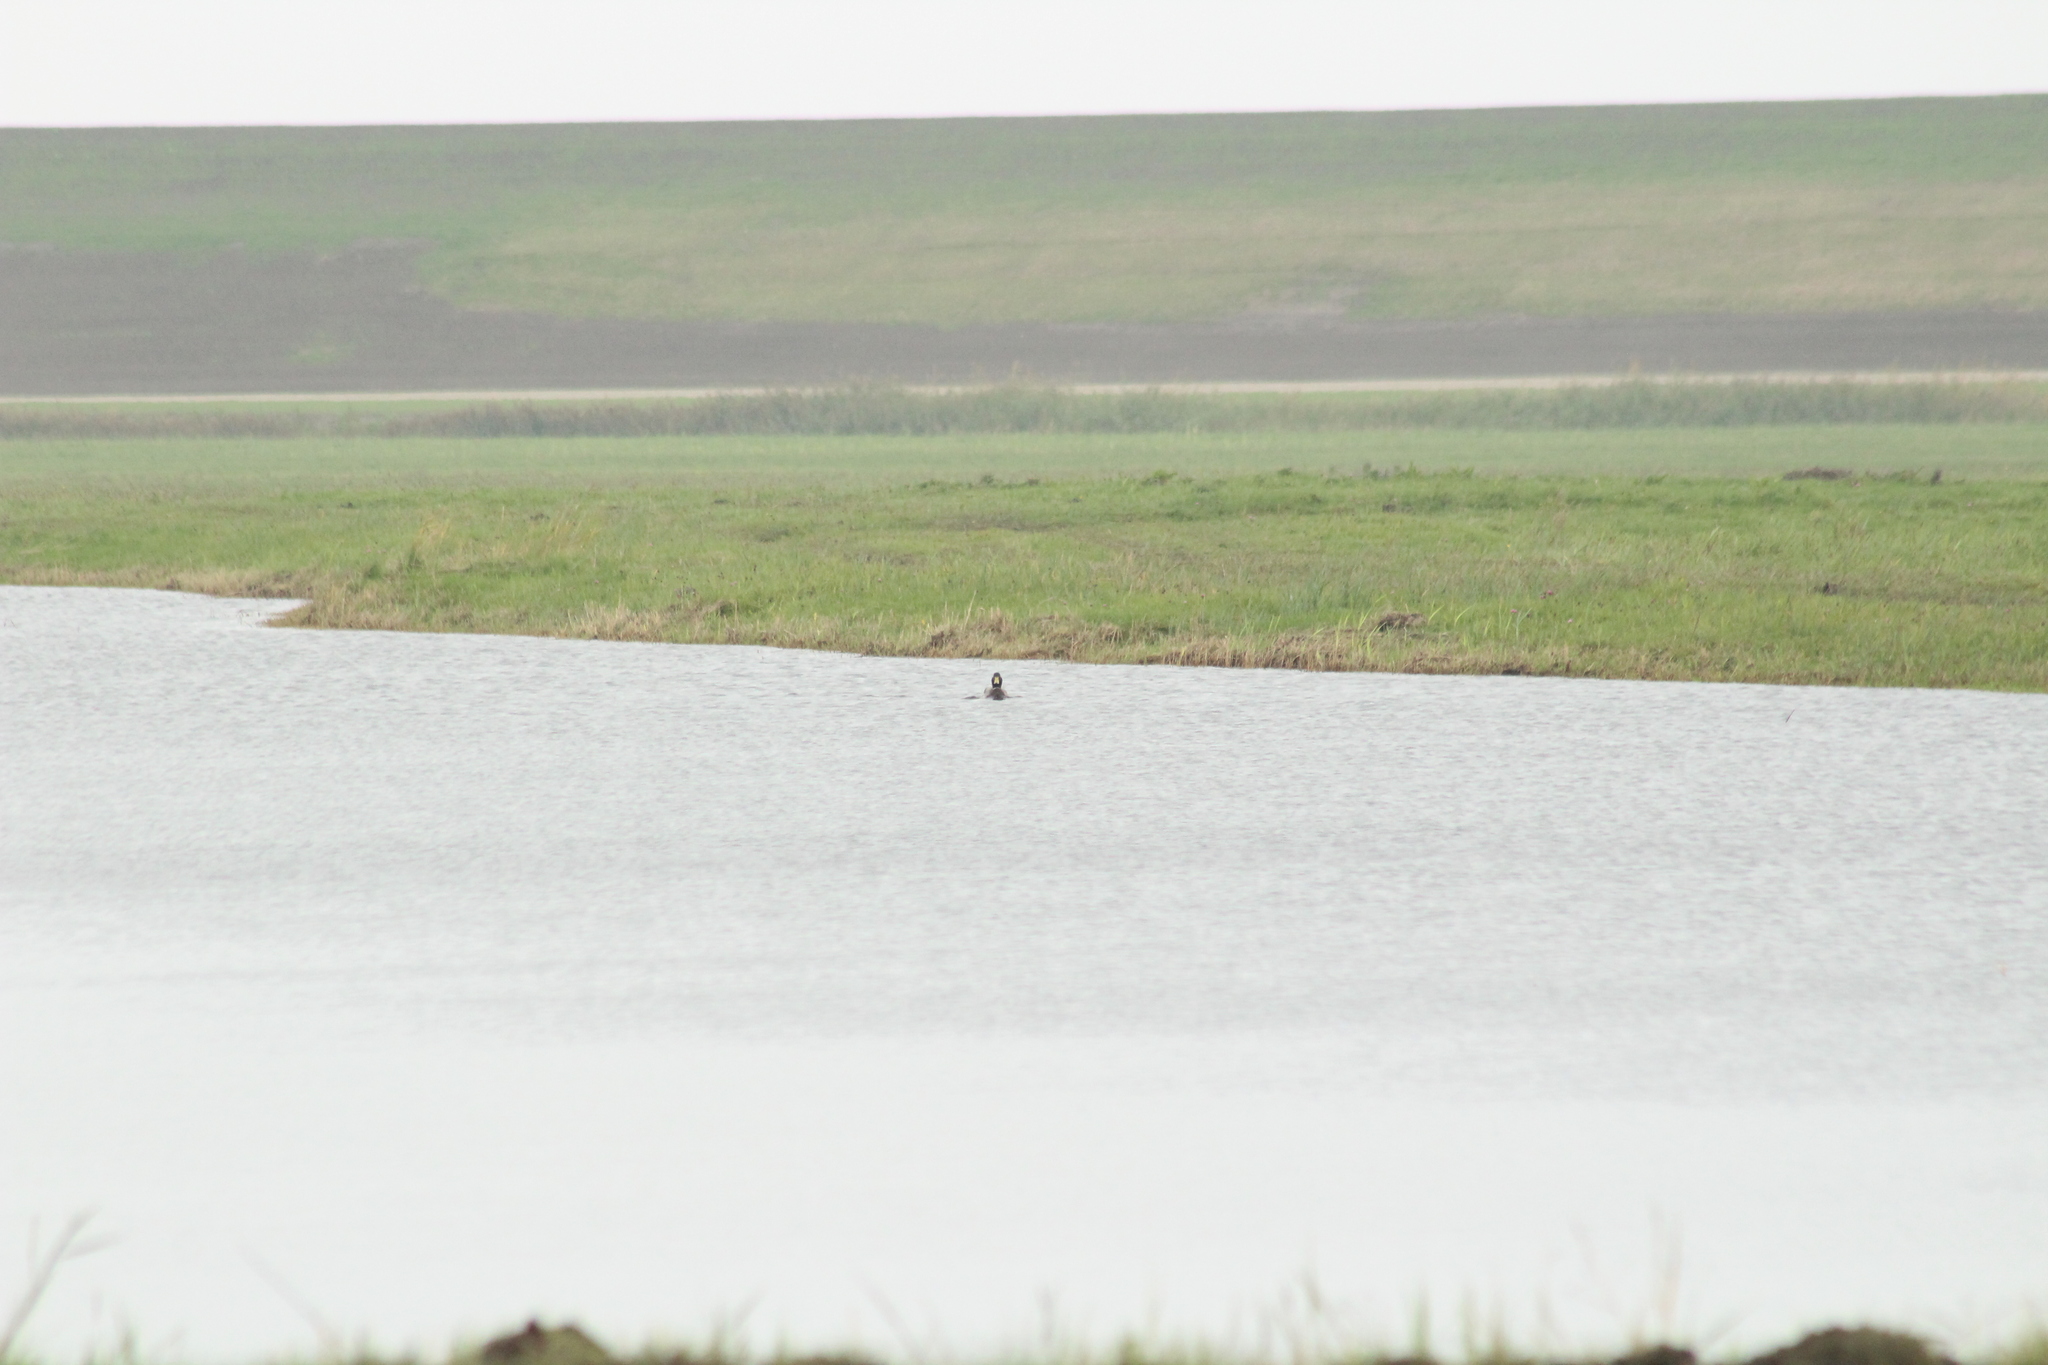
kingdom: Animalia
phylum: Chordata
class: Aves
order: Anseriformes
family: Anatidae
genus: Anas
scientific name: Anas platyrhynchos
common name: Mallard
